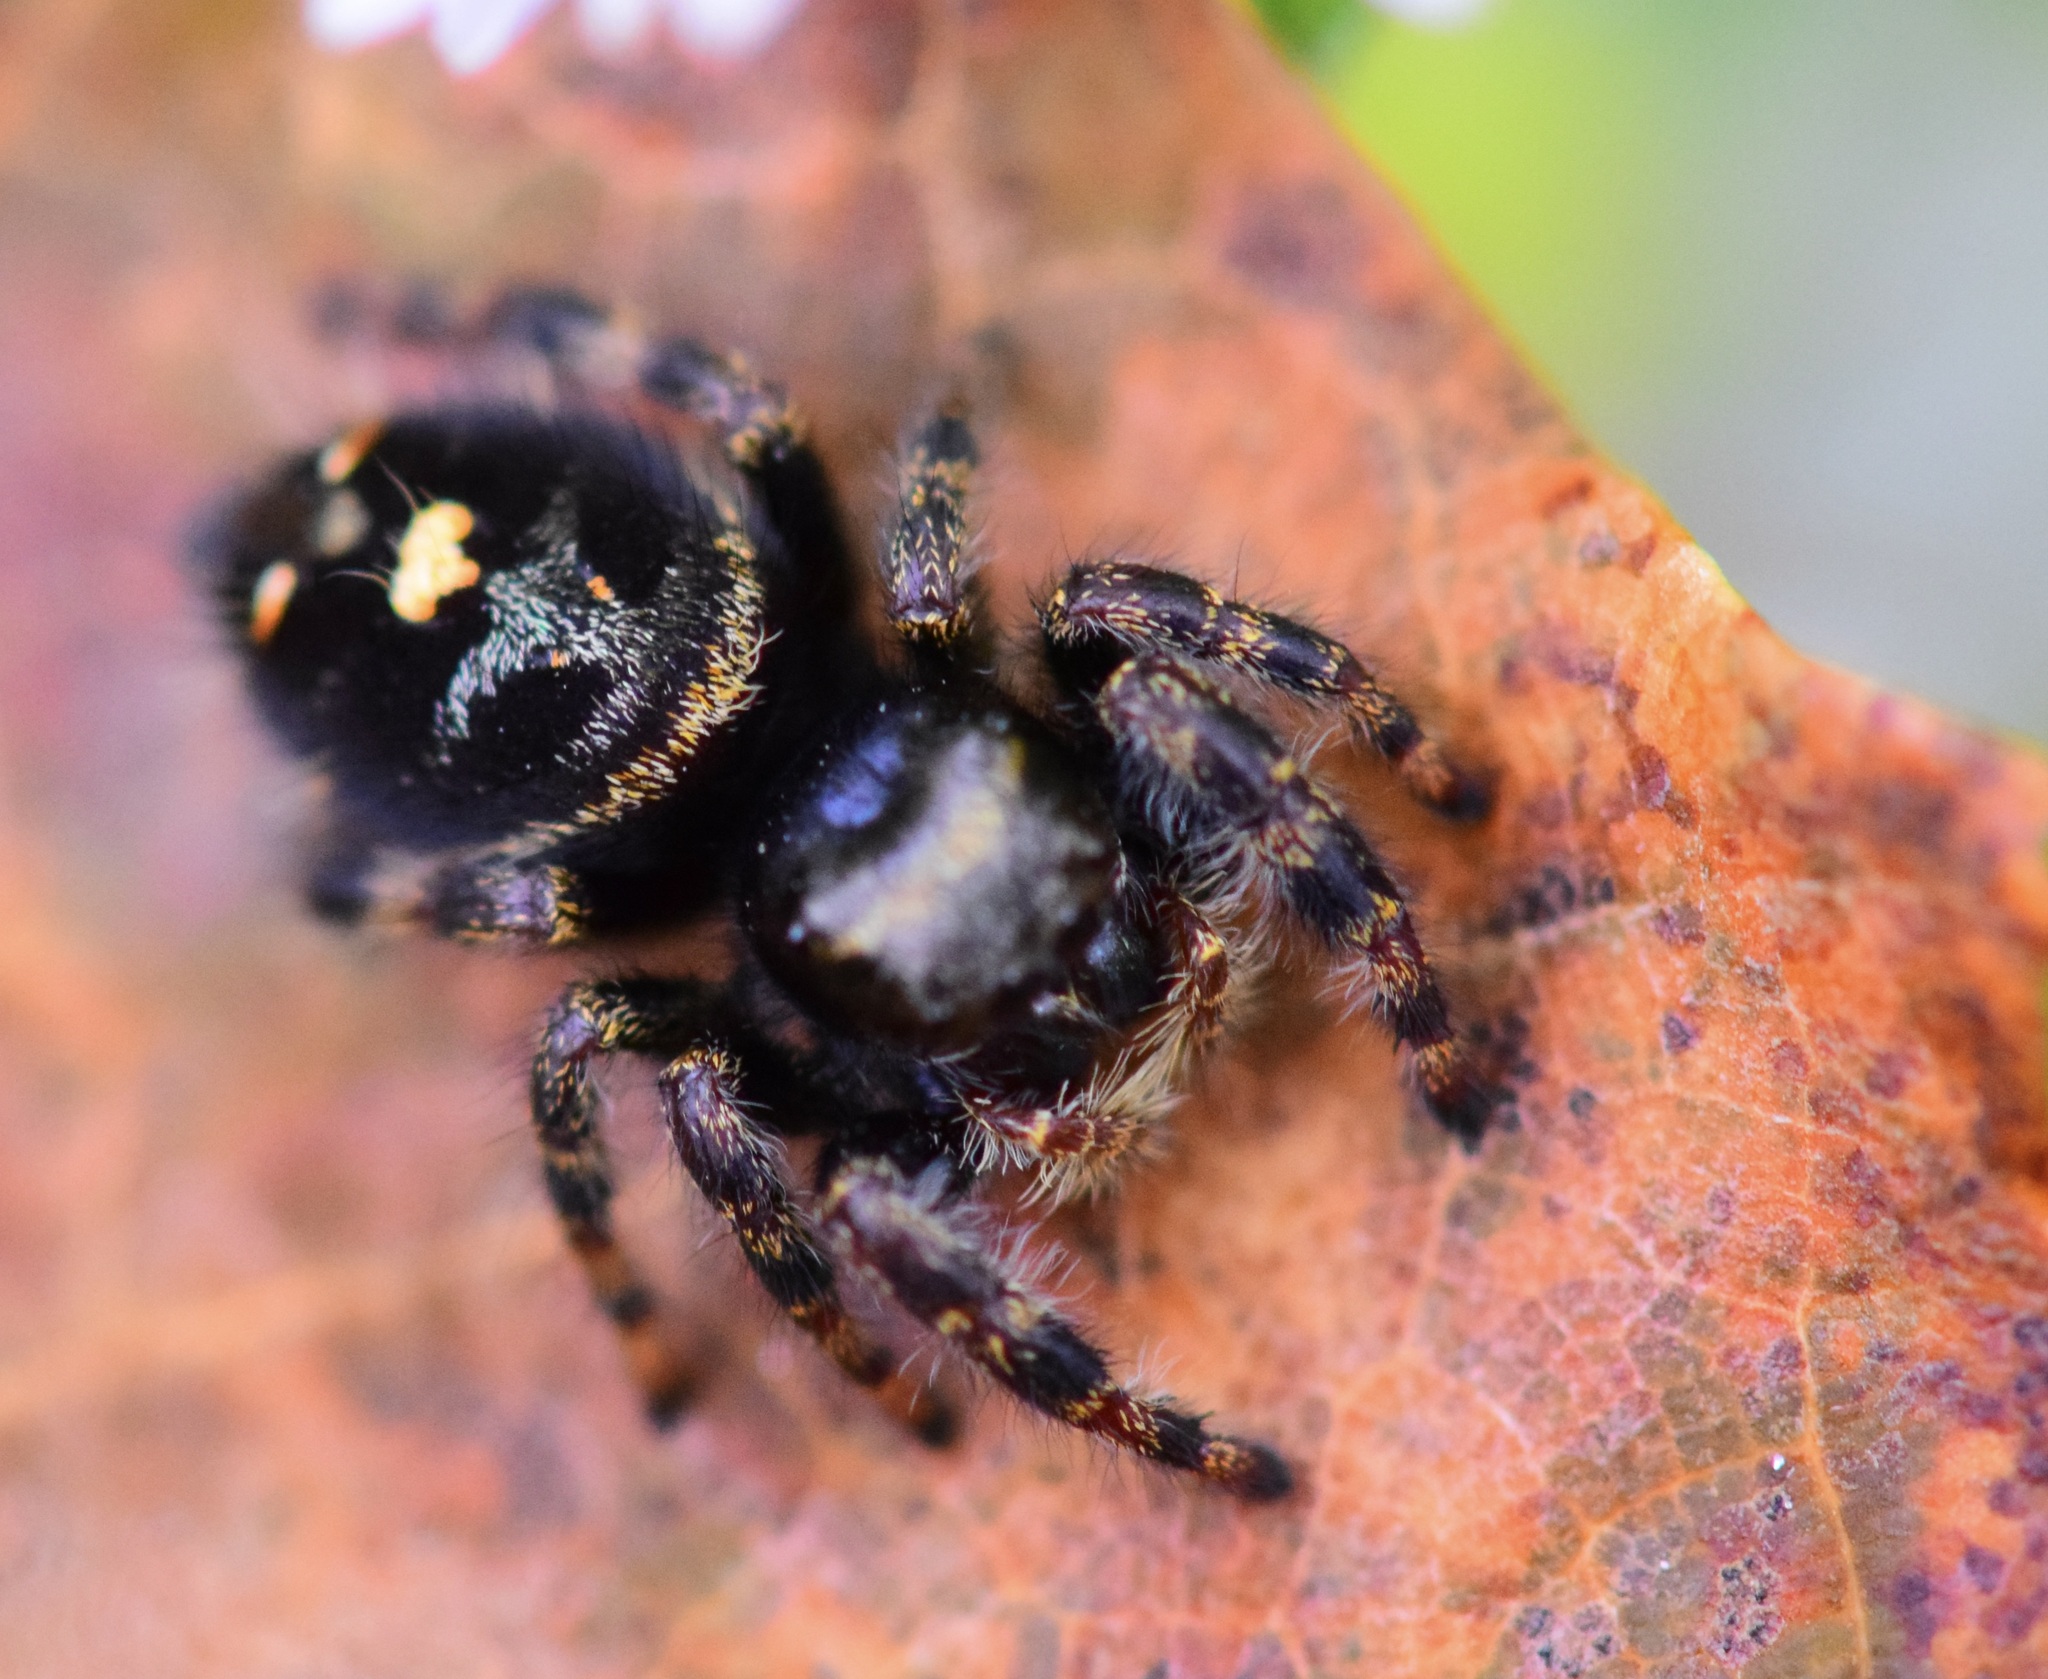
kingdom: Animalia
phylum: Arthropoda
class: Arachnida
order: Araneae
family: Salticidae
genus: Phidippus
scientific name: Phidippus audax
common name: Bold jumper
